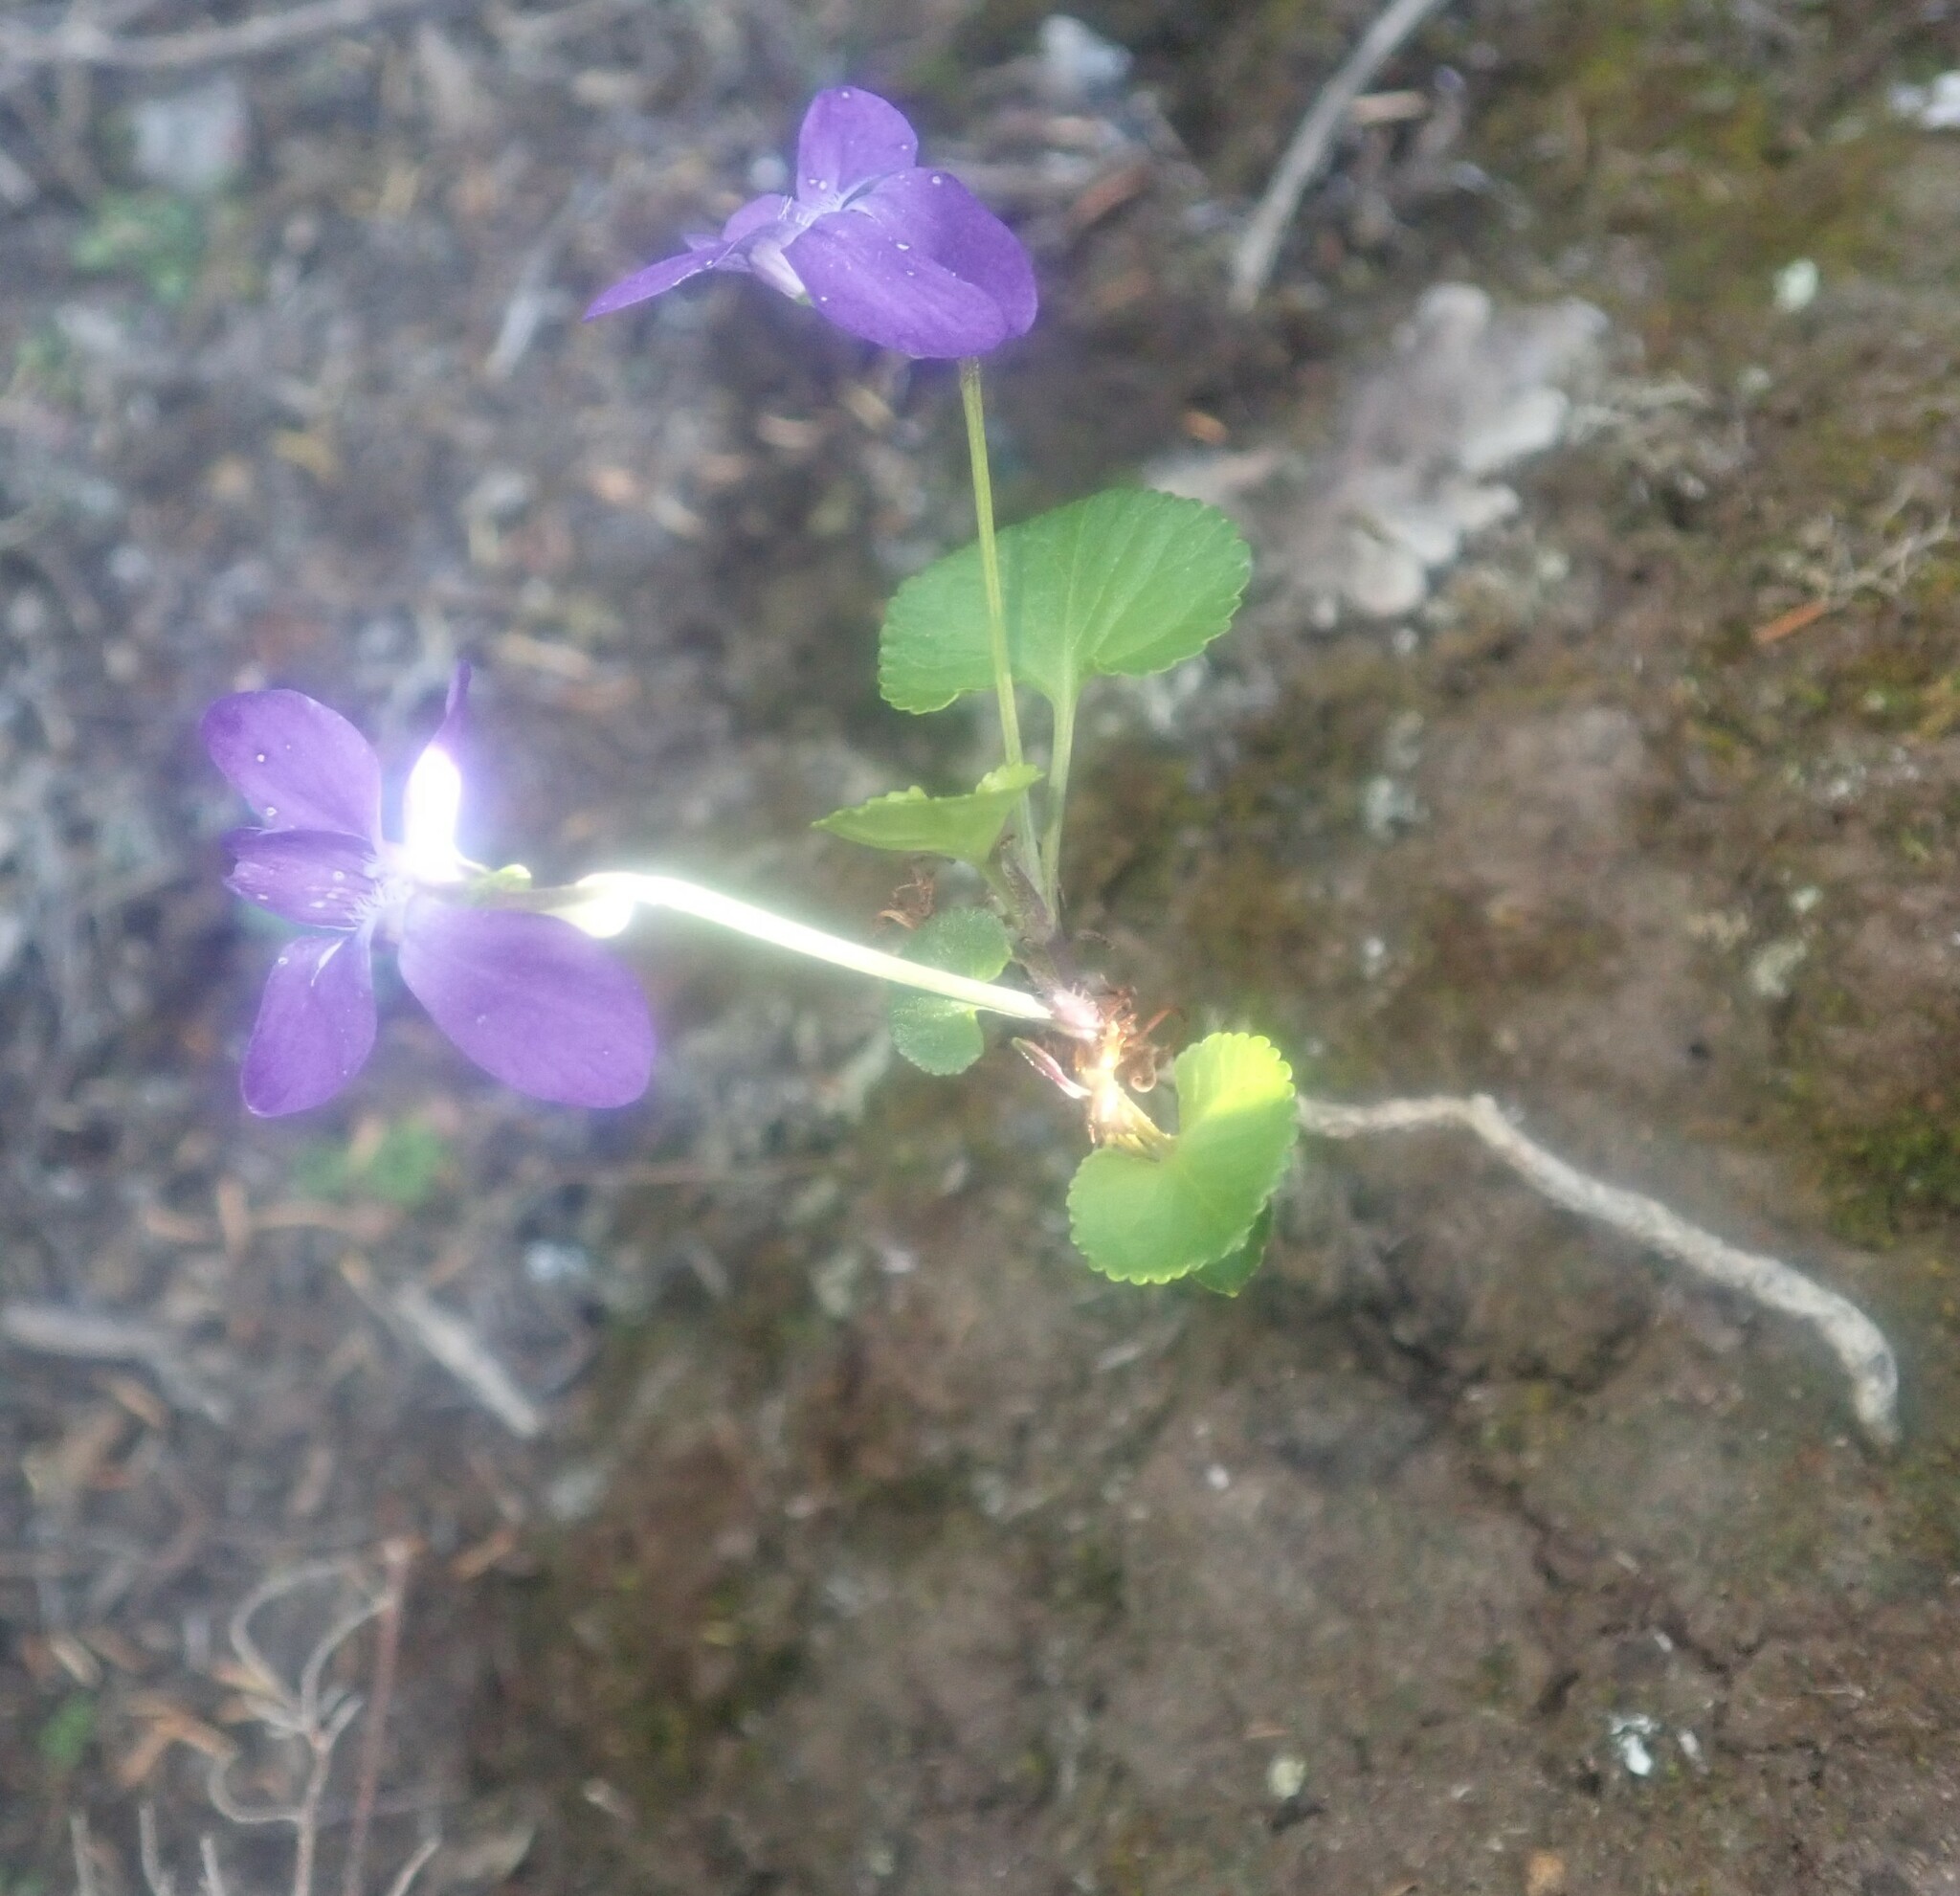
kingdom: Plantae
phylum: Tracheophyta
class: Magnoliopsida
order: Malpighiales
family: Violaceae
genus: Viola
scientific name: Viola riviniana
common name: Common dog-violet
